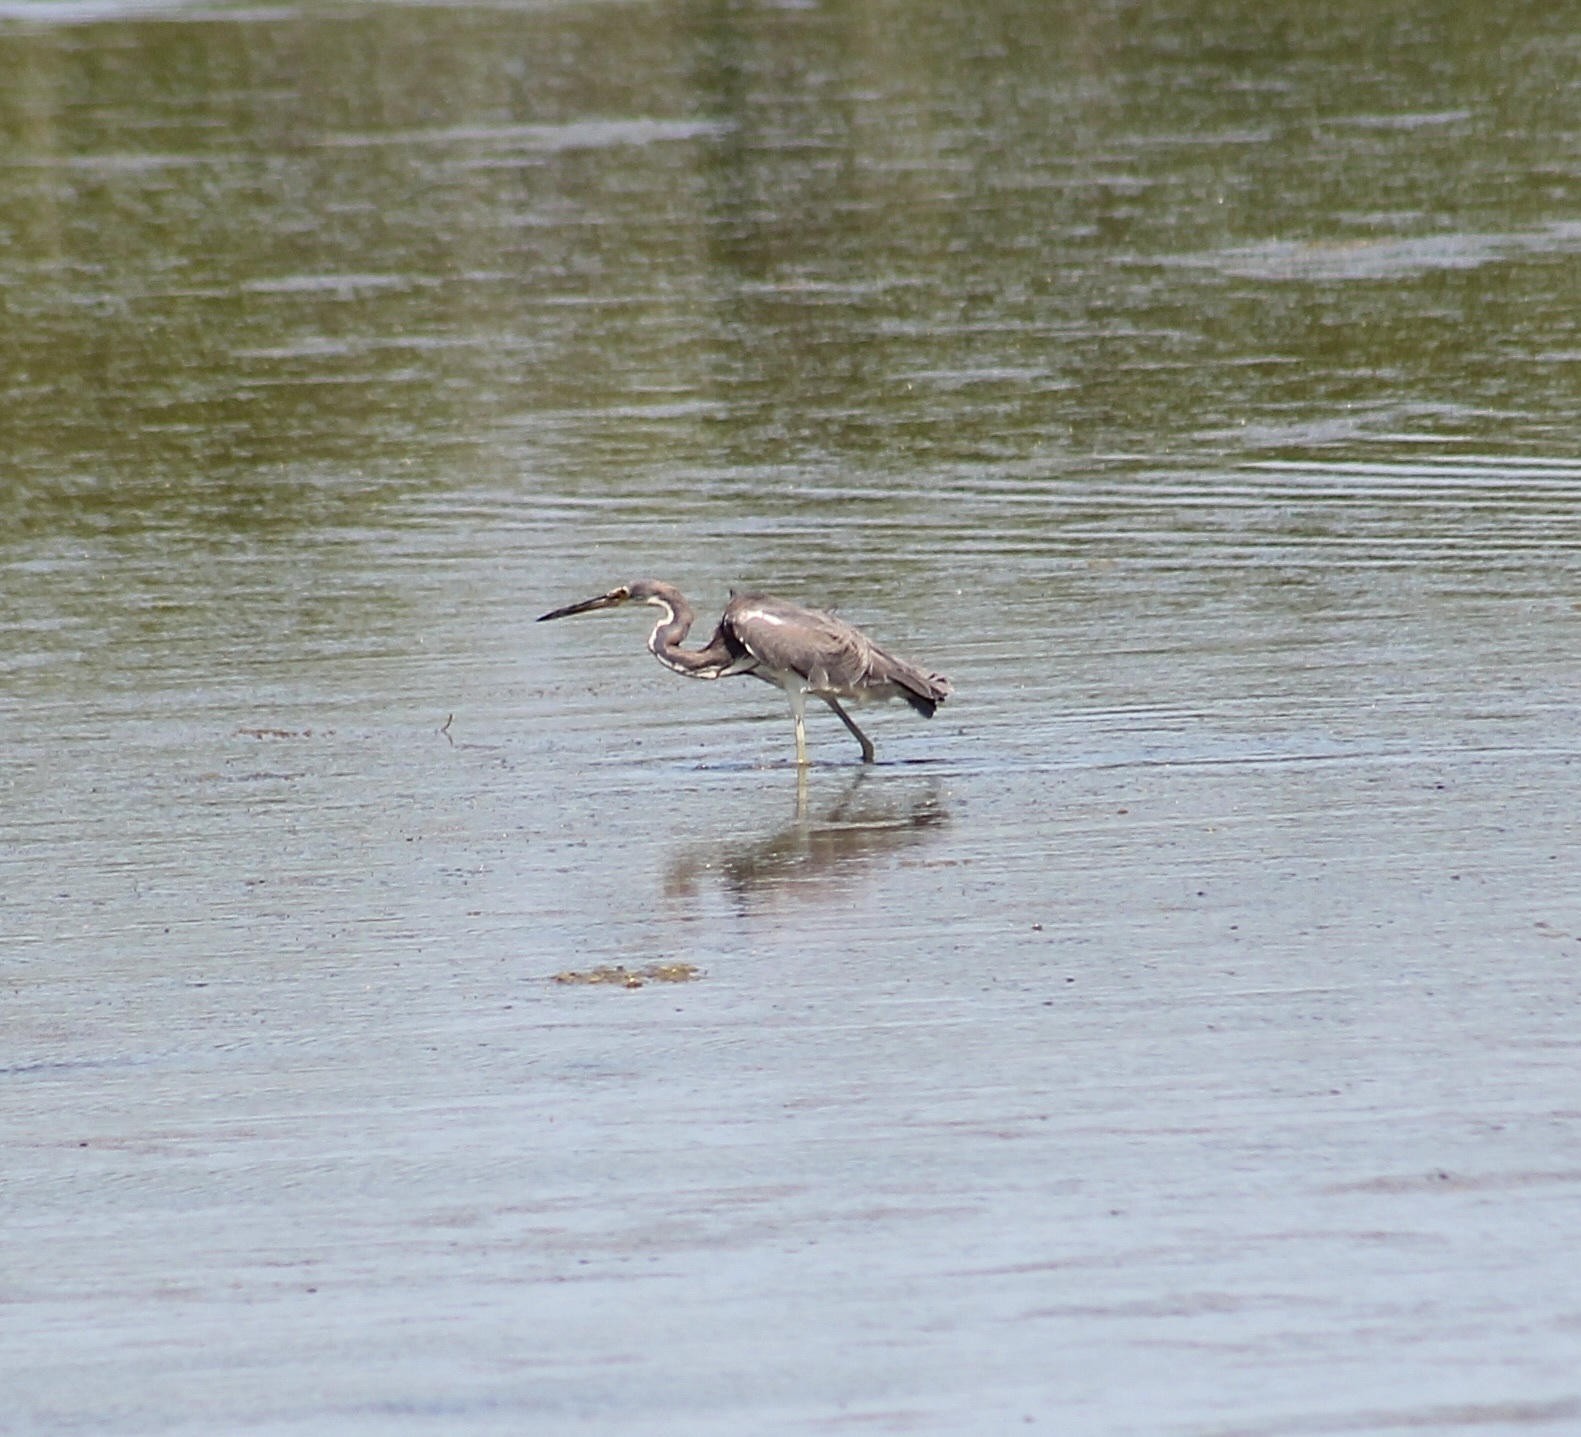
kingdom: Animalia
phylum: Chordata
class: Aves
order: Pelecaniformes
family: Ardeidae
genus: Egretta
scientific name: Egretta tricolor
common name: Tricolored heron
